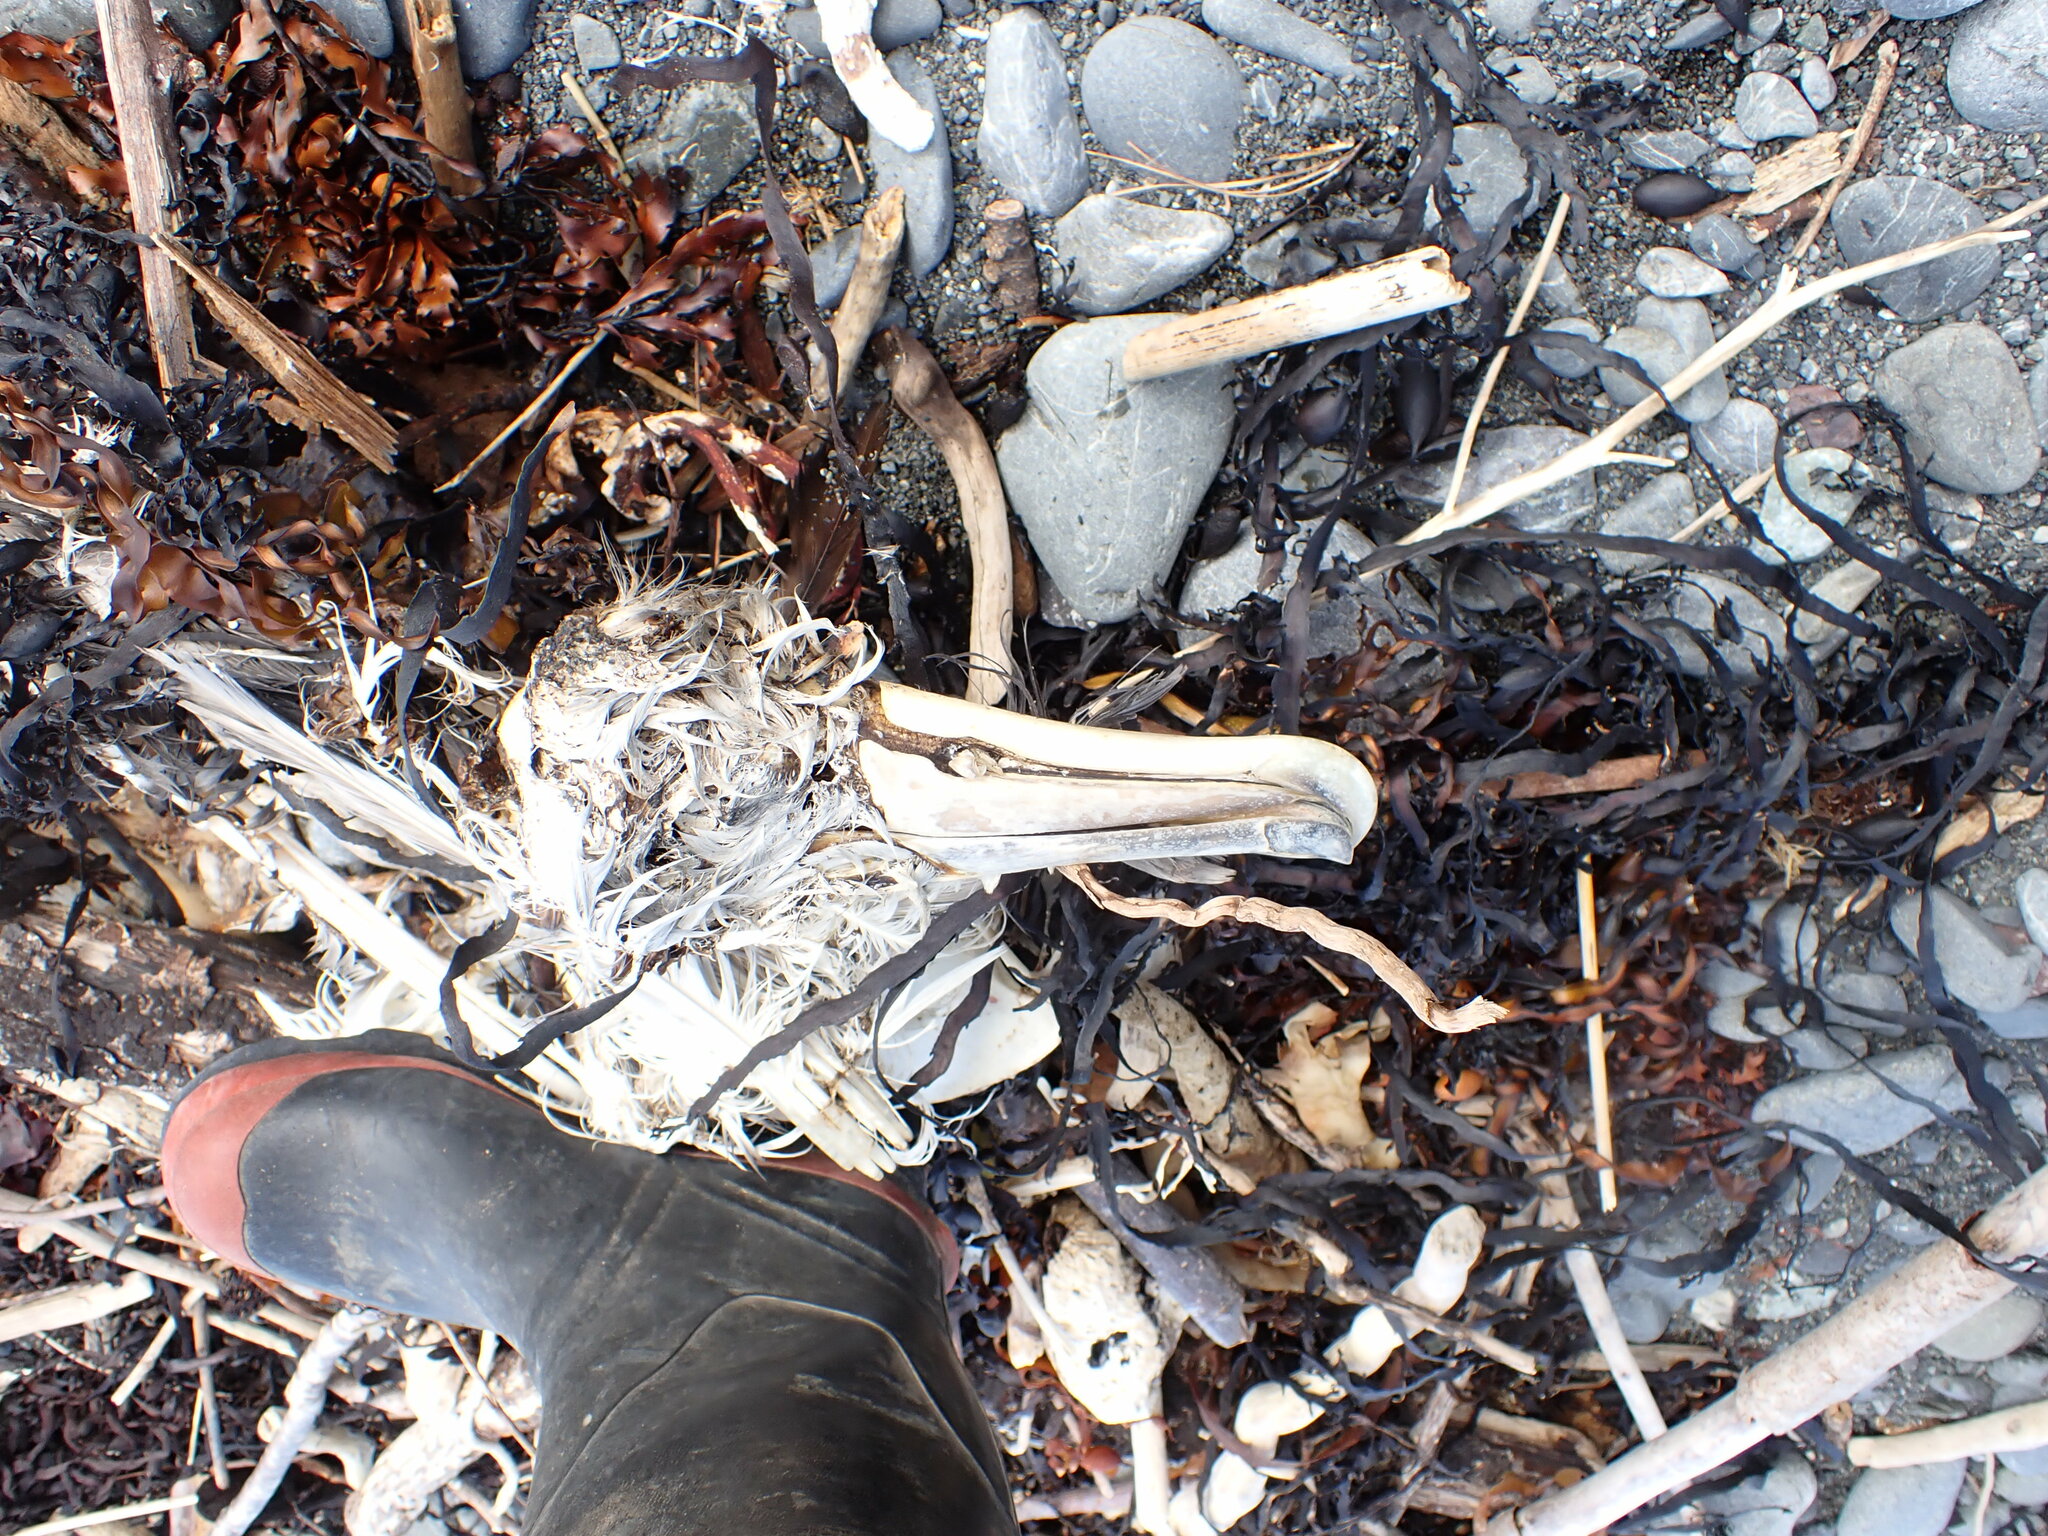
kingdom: Animalia
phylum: Chordata
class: Aves
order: Procellariiformes
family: Diomedeidae
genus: Thalassarche
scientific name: Thalassarche salvini
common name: Salvin's albatross
